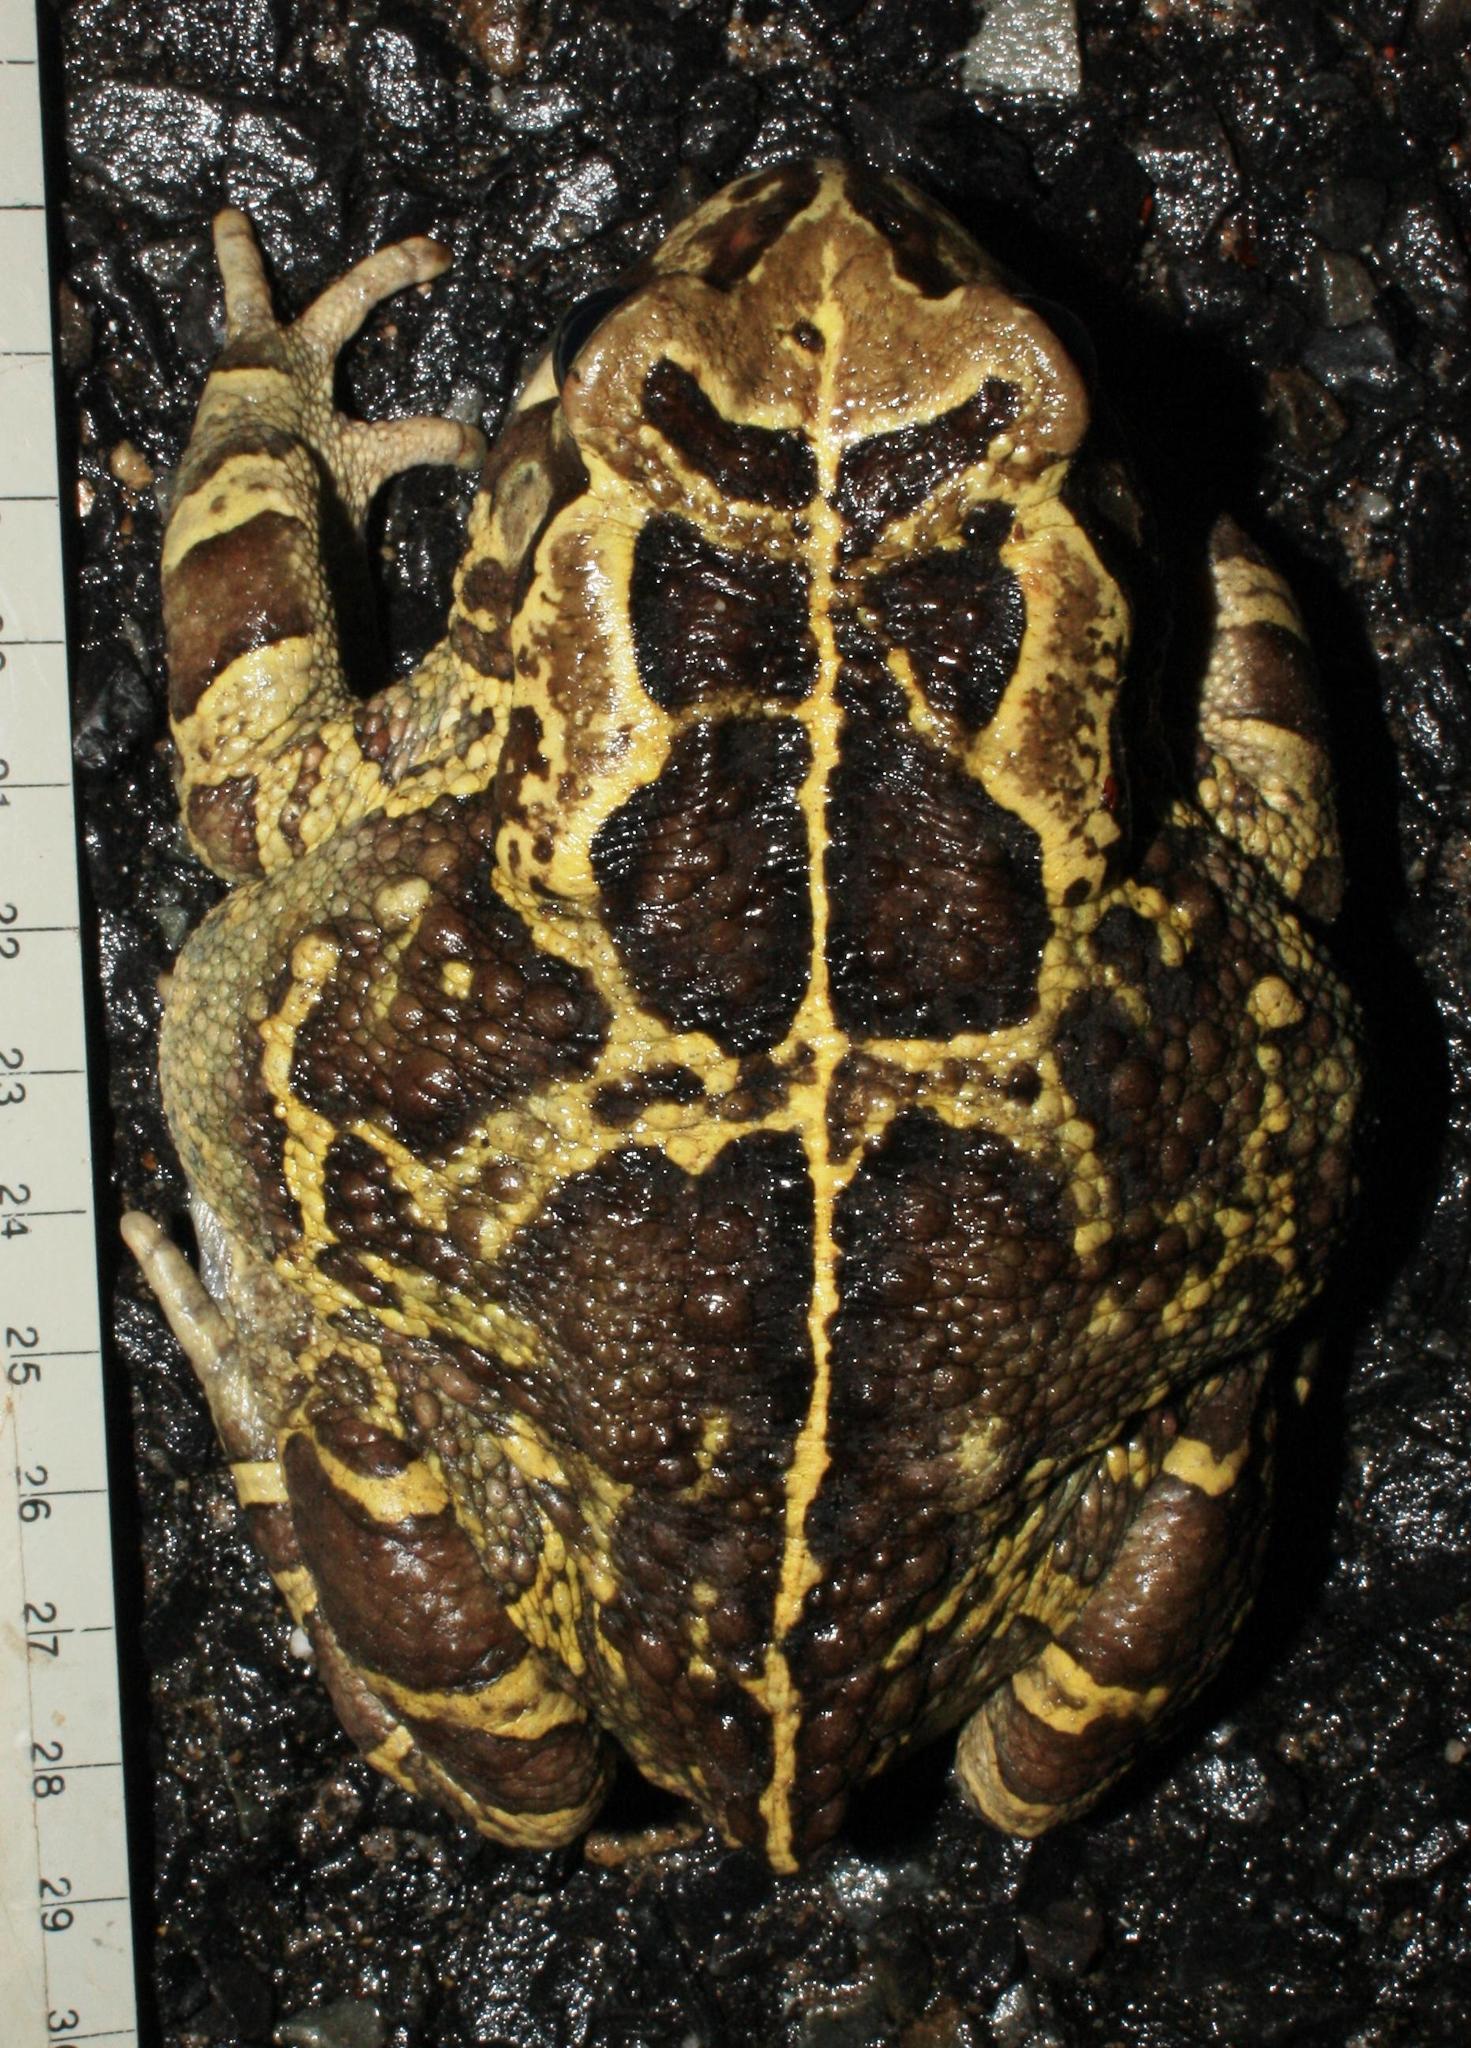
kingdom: Animalia
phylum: Chordata
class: Amphibia
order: Anura
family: Bufonidae
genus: Sclerophrys
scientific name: Sclerophrys pantherina
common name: Panther toad
